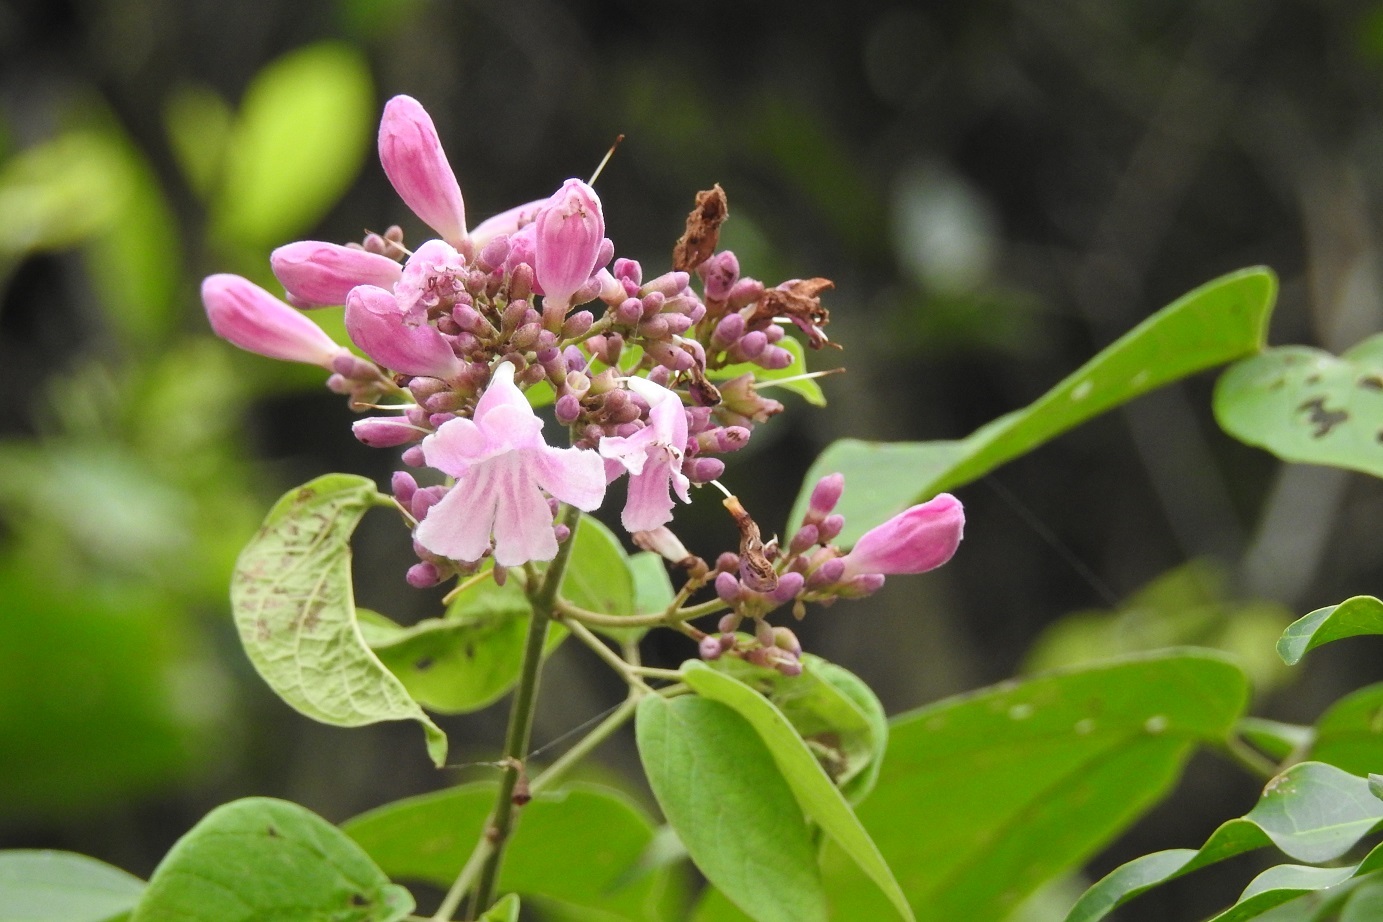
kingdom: Plantae
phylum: Tracheophyta
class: Magnoliopsida
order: Lamiales
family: Bignoniaceae
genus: Fridericia
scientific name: Fridericia chica
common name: Cricketvine
